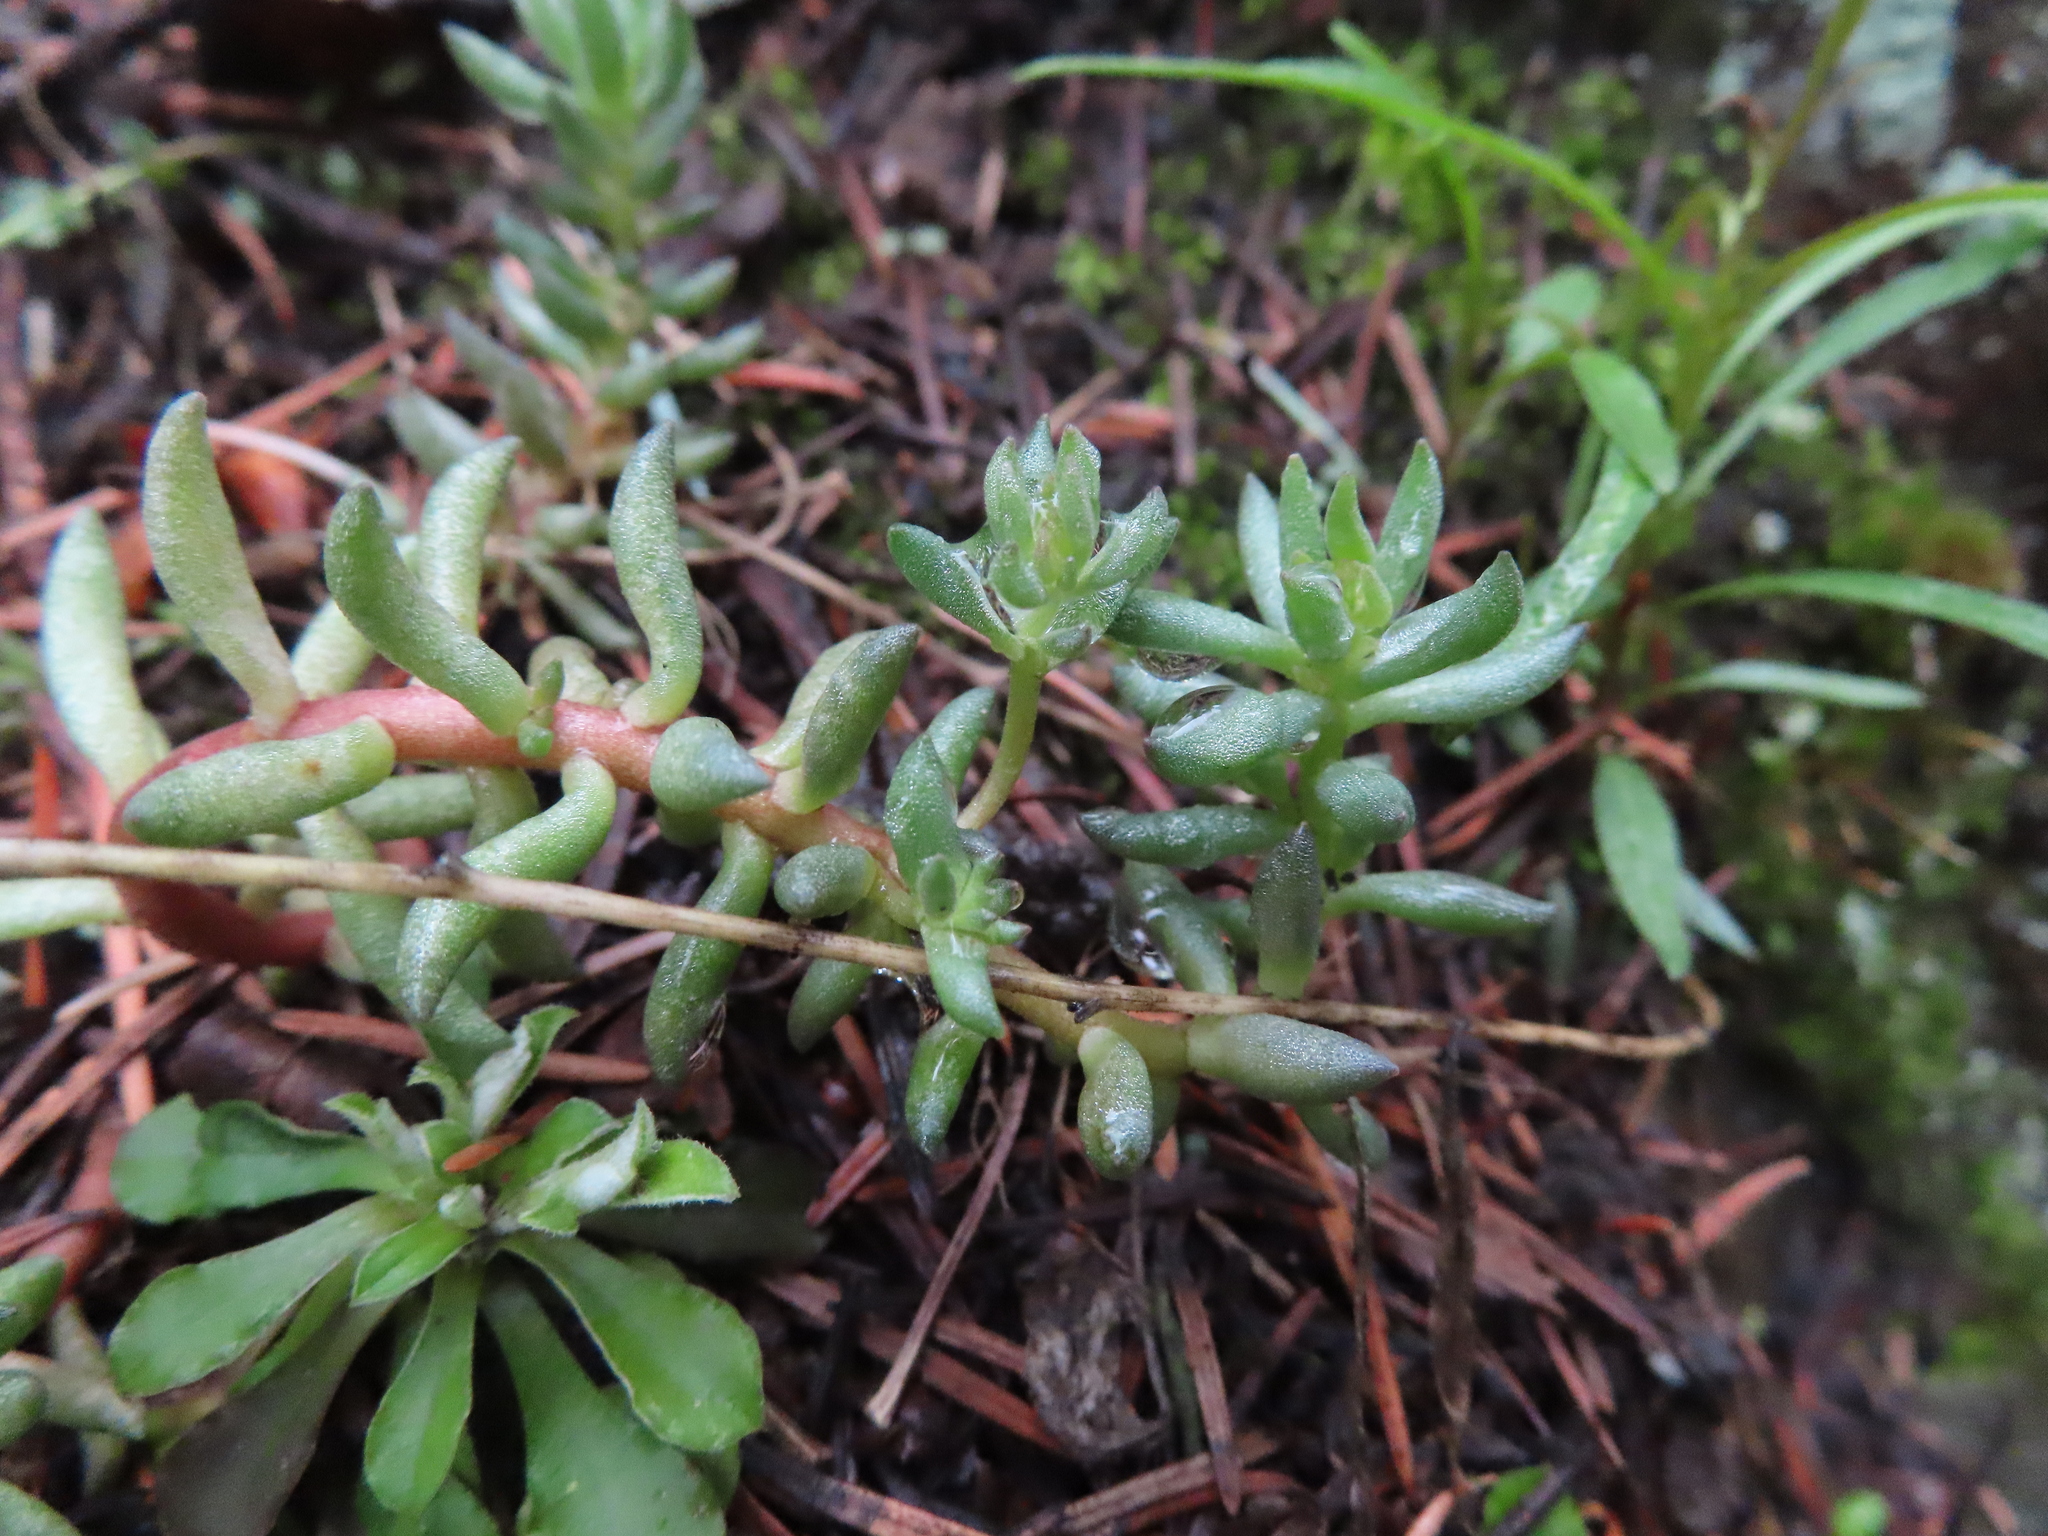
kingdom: Plantae
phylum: Tracheophyta
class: Magnoliopsida
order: Saxifragales
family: Crassulaceae
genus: Sedum
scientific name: Sedum lanceolatum
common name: Common stonecrop
